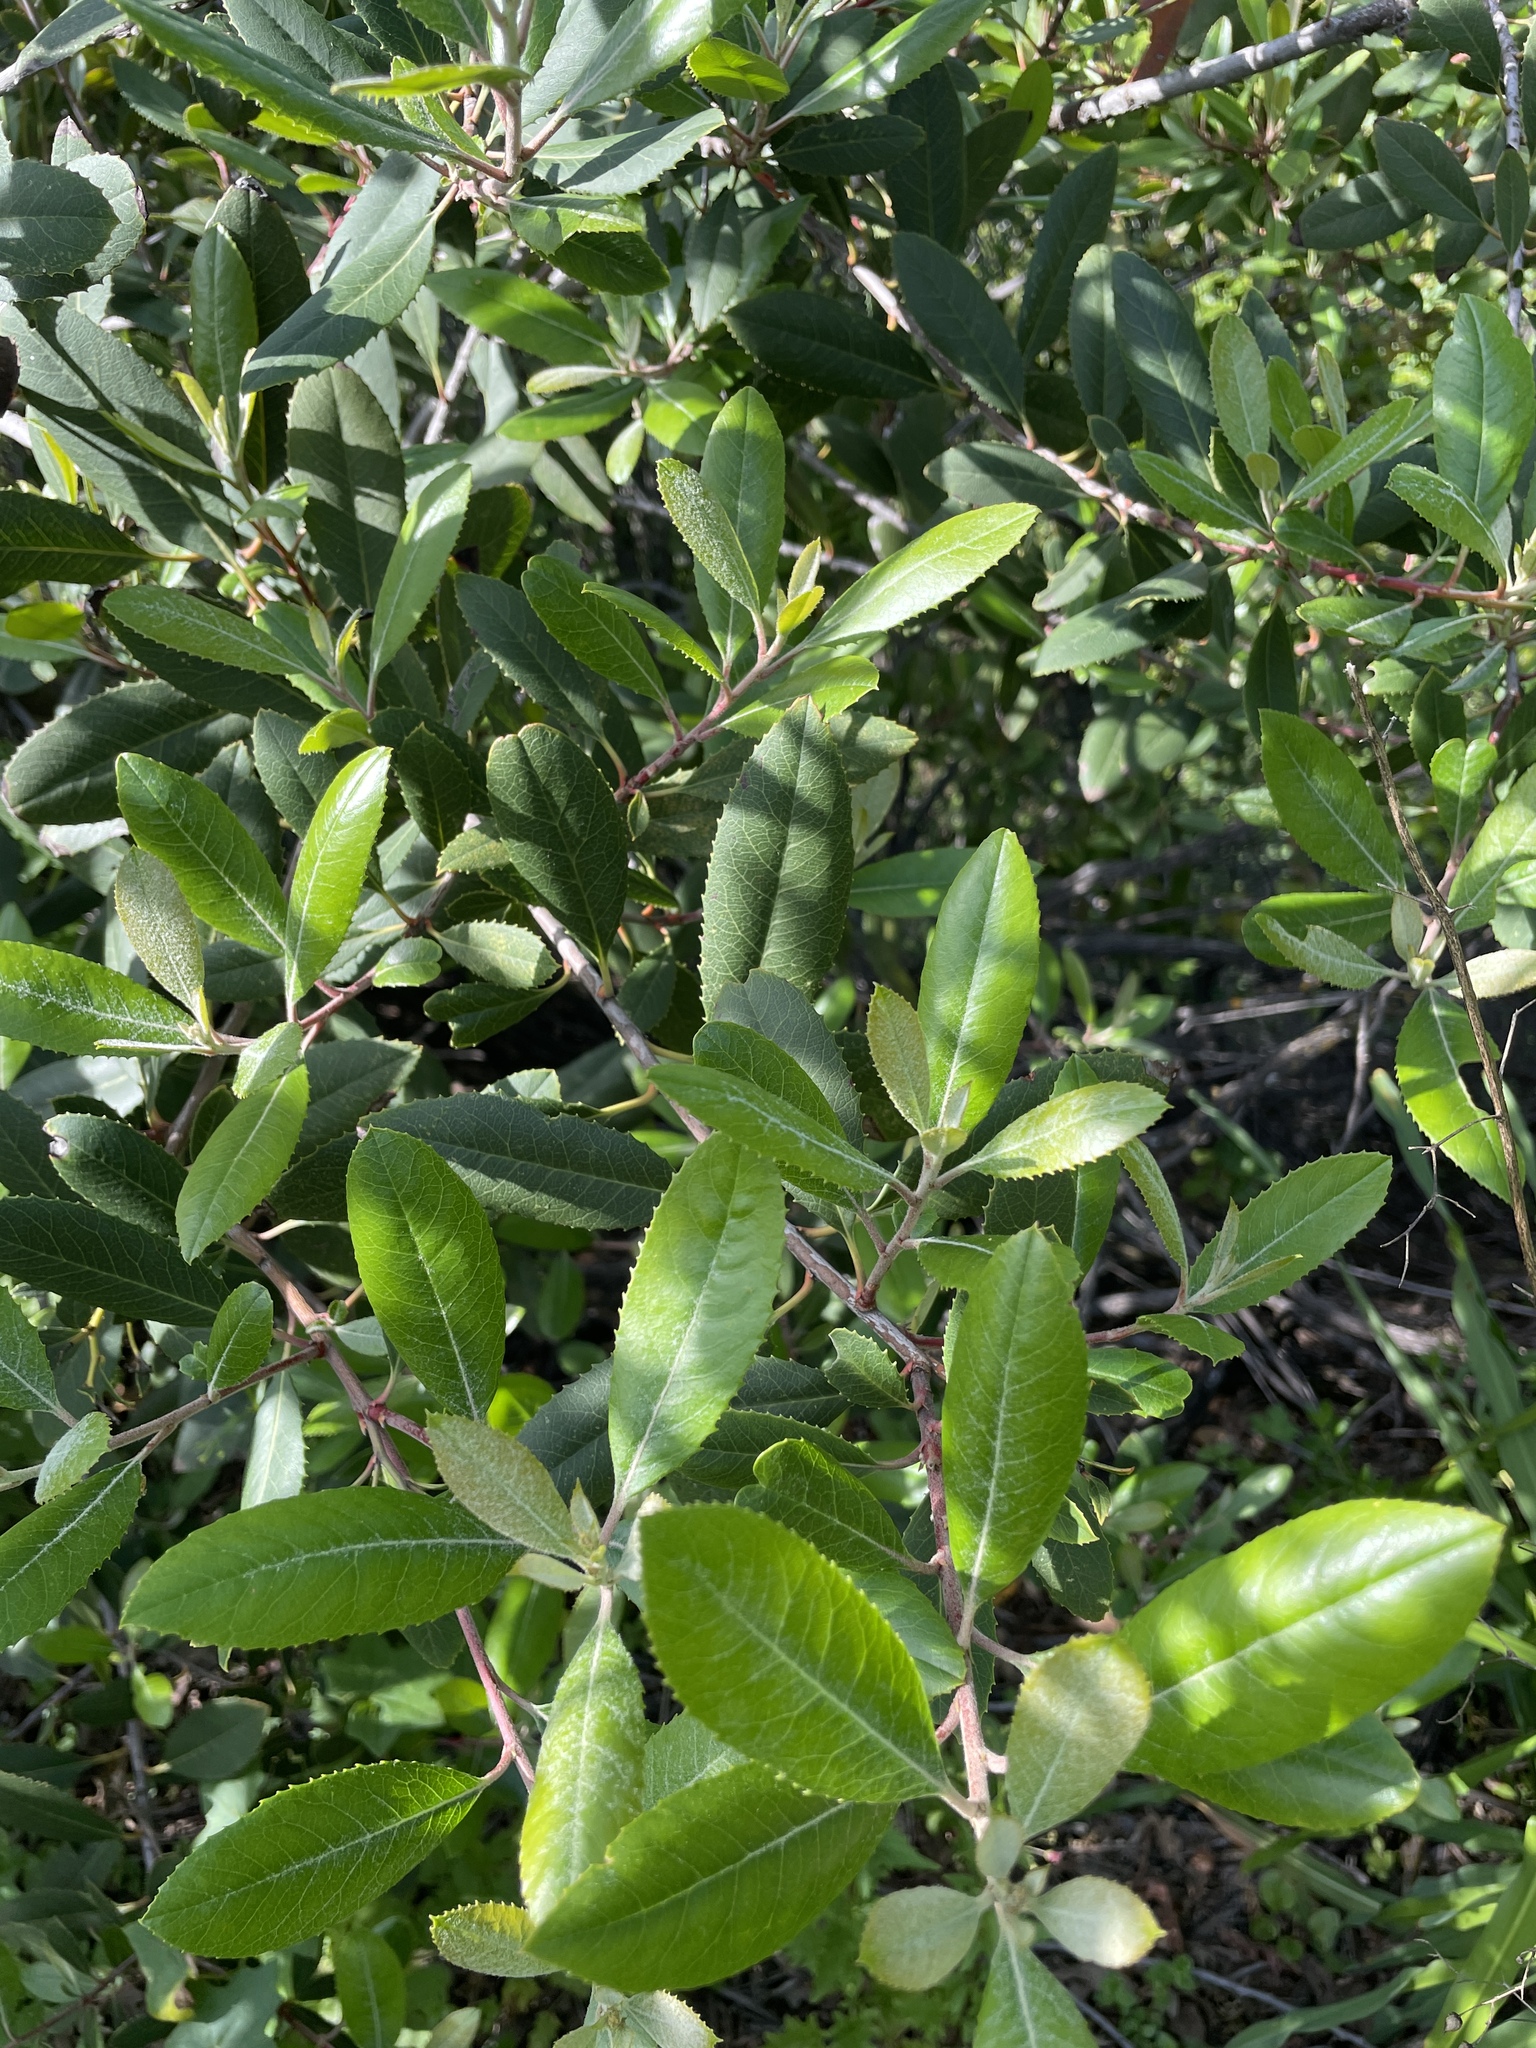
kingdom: Plantae
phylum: Tracheophyta
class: Magnoliopsida
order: Rosales
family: Rosaceae
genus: Heteromeles
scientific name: Heteromeles arbutifolia
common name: California-holly
